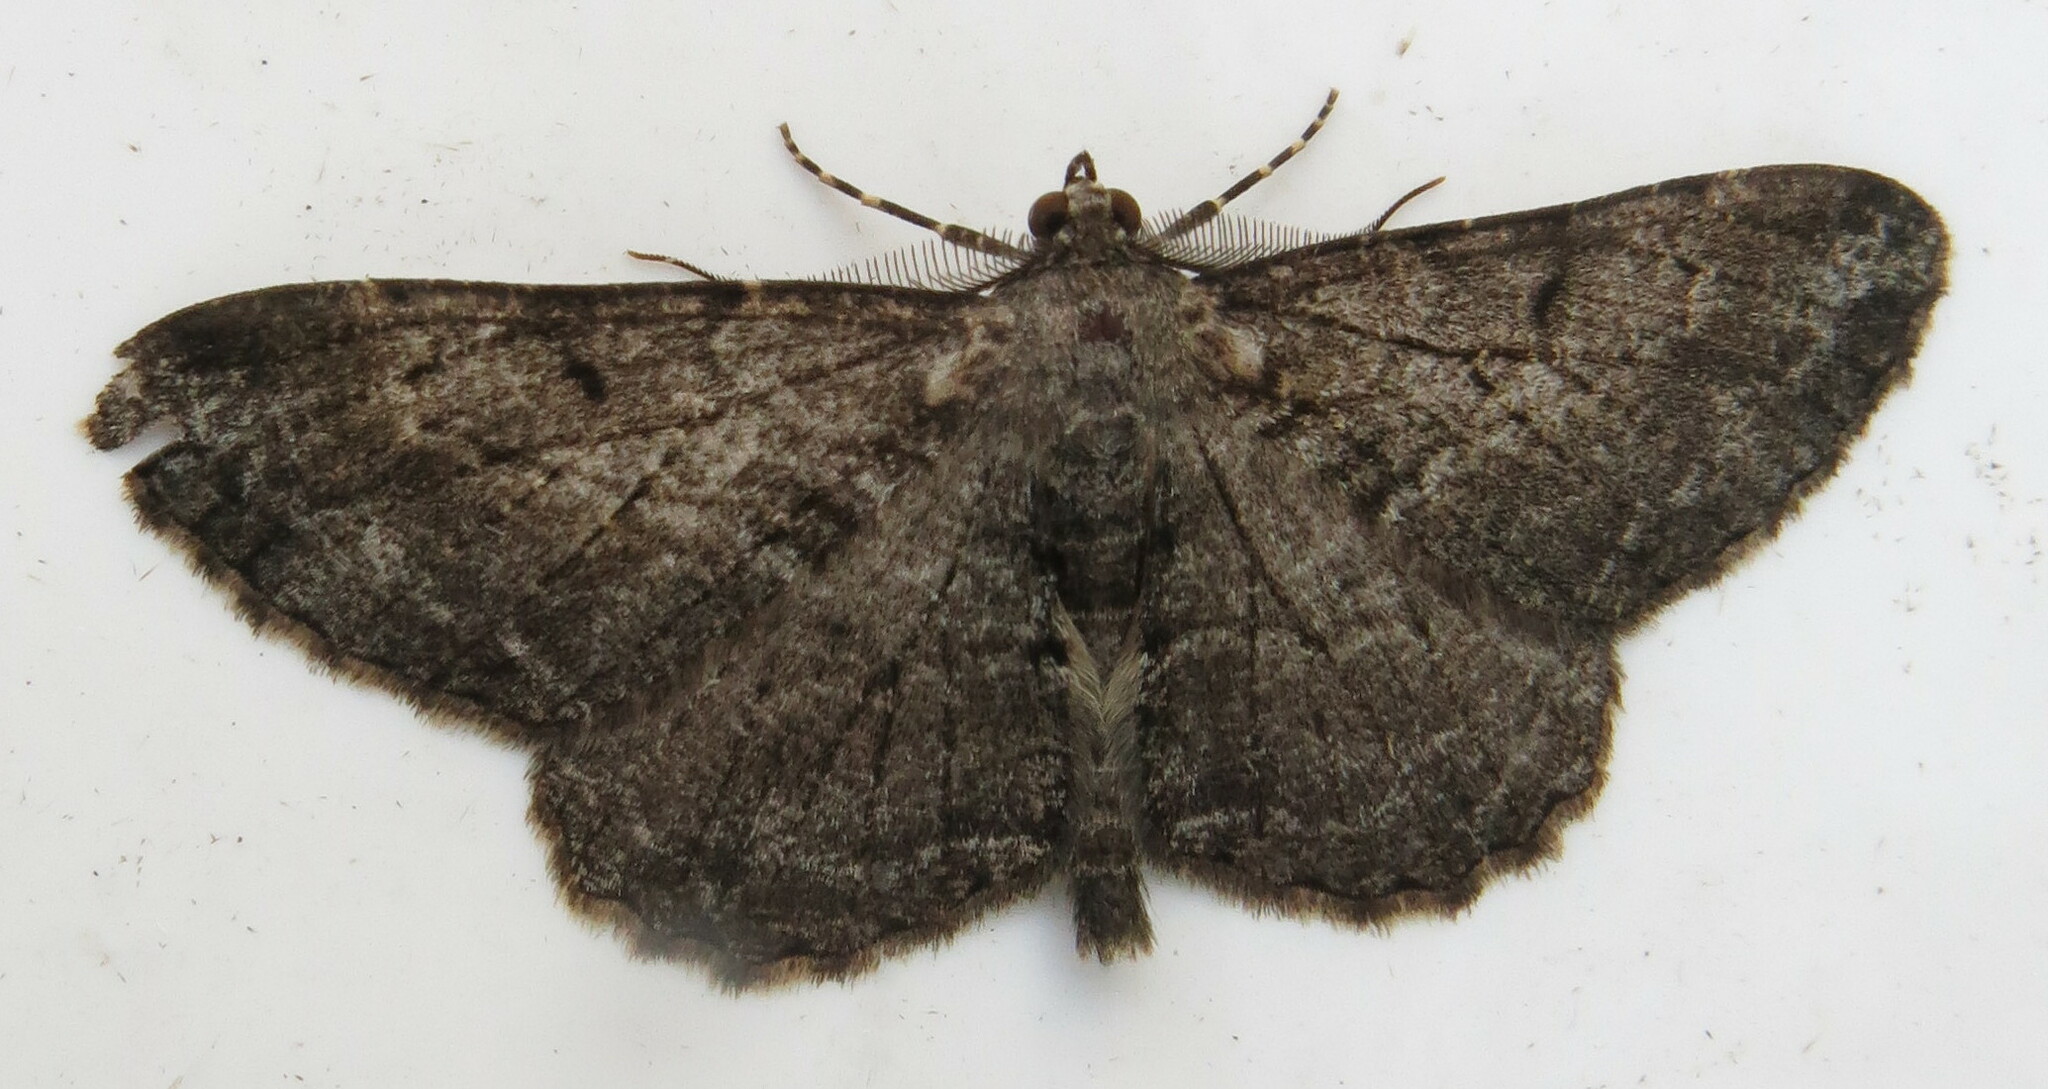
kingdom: Animalia
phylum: Arthropoda
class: Insecta
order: Lepidoptera
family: Geometridae
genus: Peribatodes
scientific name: Peribatodes rhomboidaria
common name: Willow beauty
